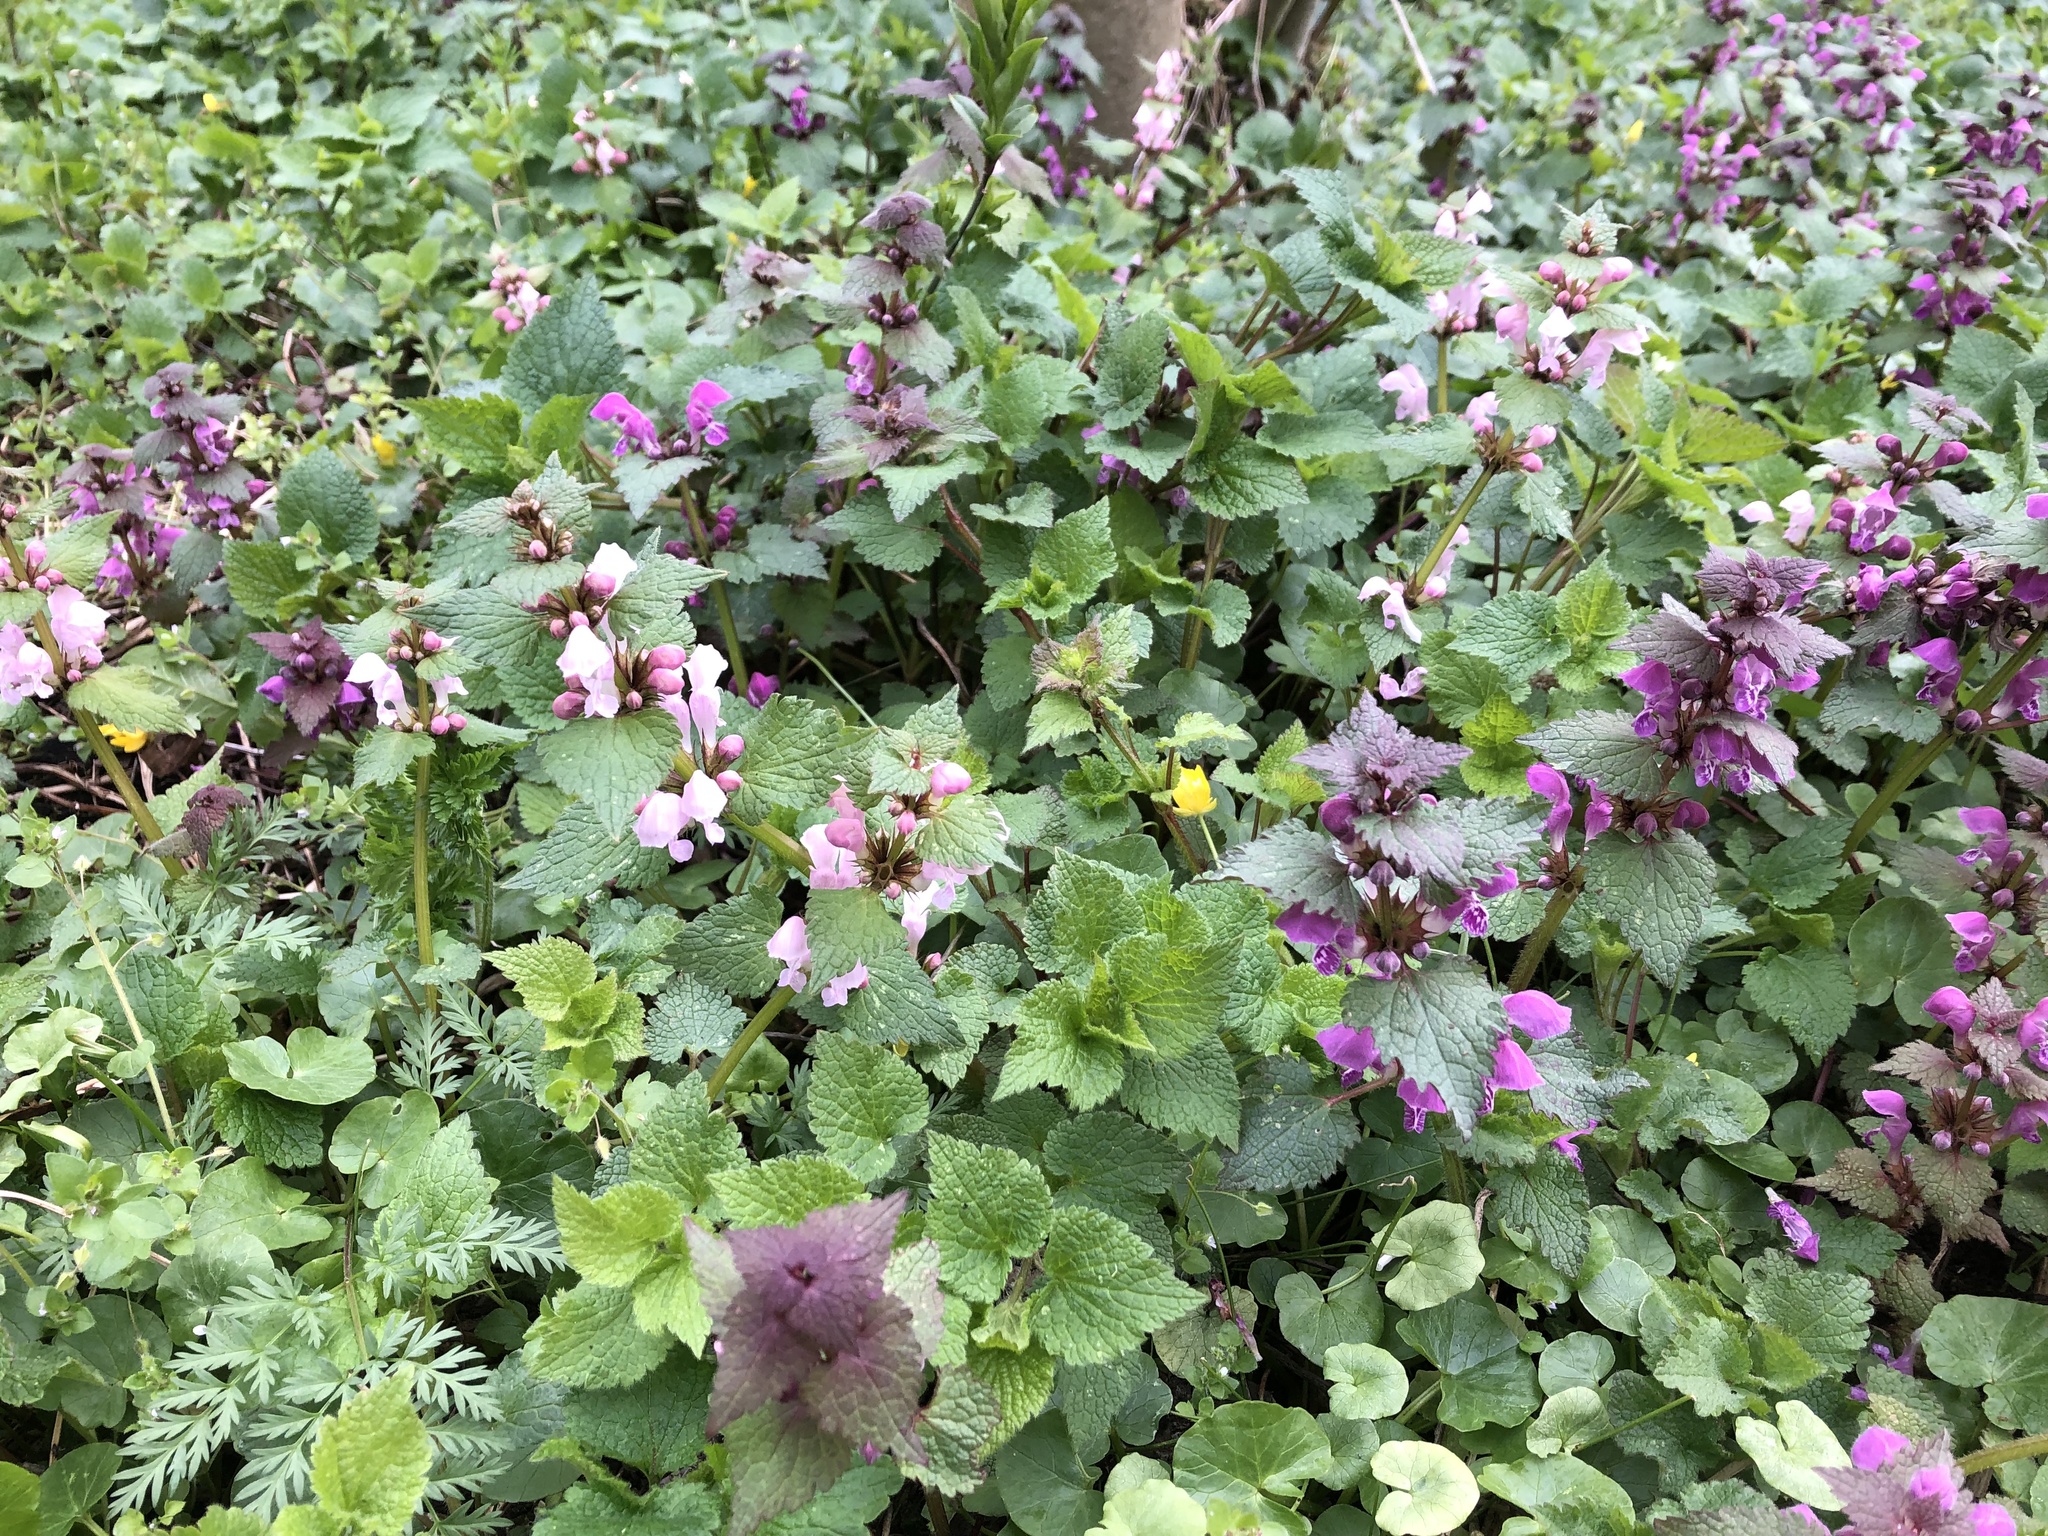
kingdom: Plantae
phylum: Tracheophyta
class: Magnoliopsida
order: Lamiales
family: Lamiaceae
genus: Lamium
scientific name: Lamium maculatum
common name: Spotted dead-nettle
